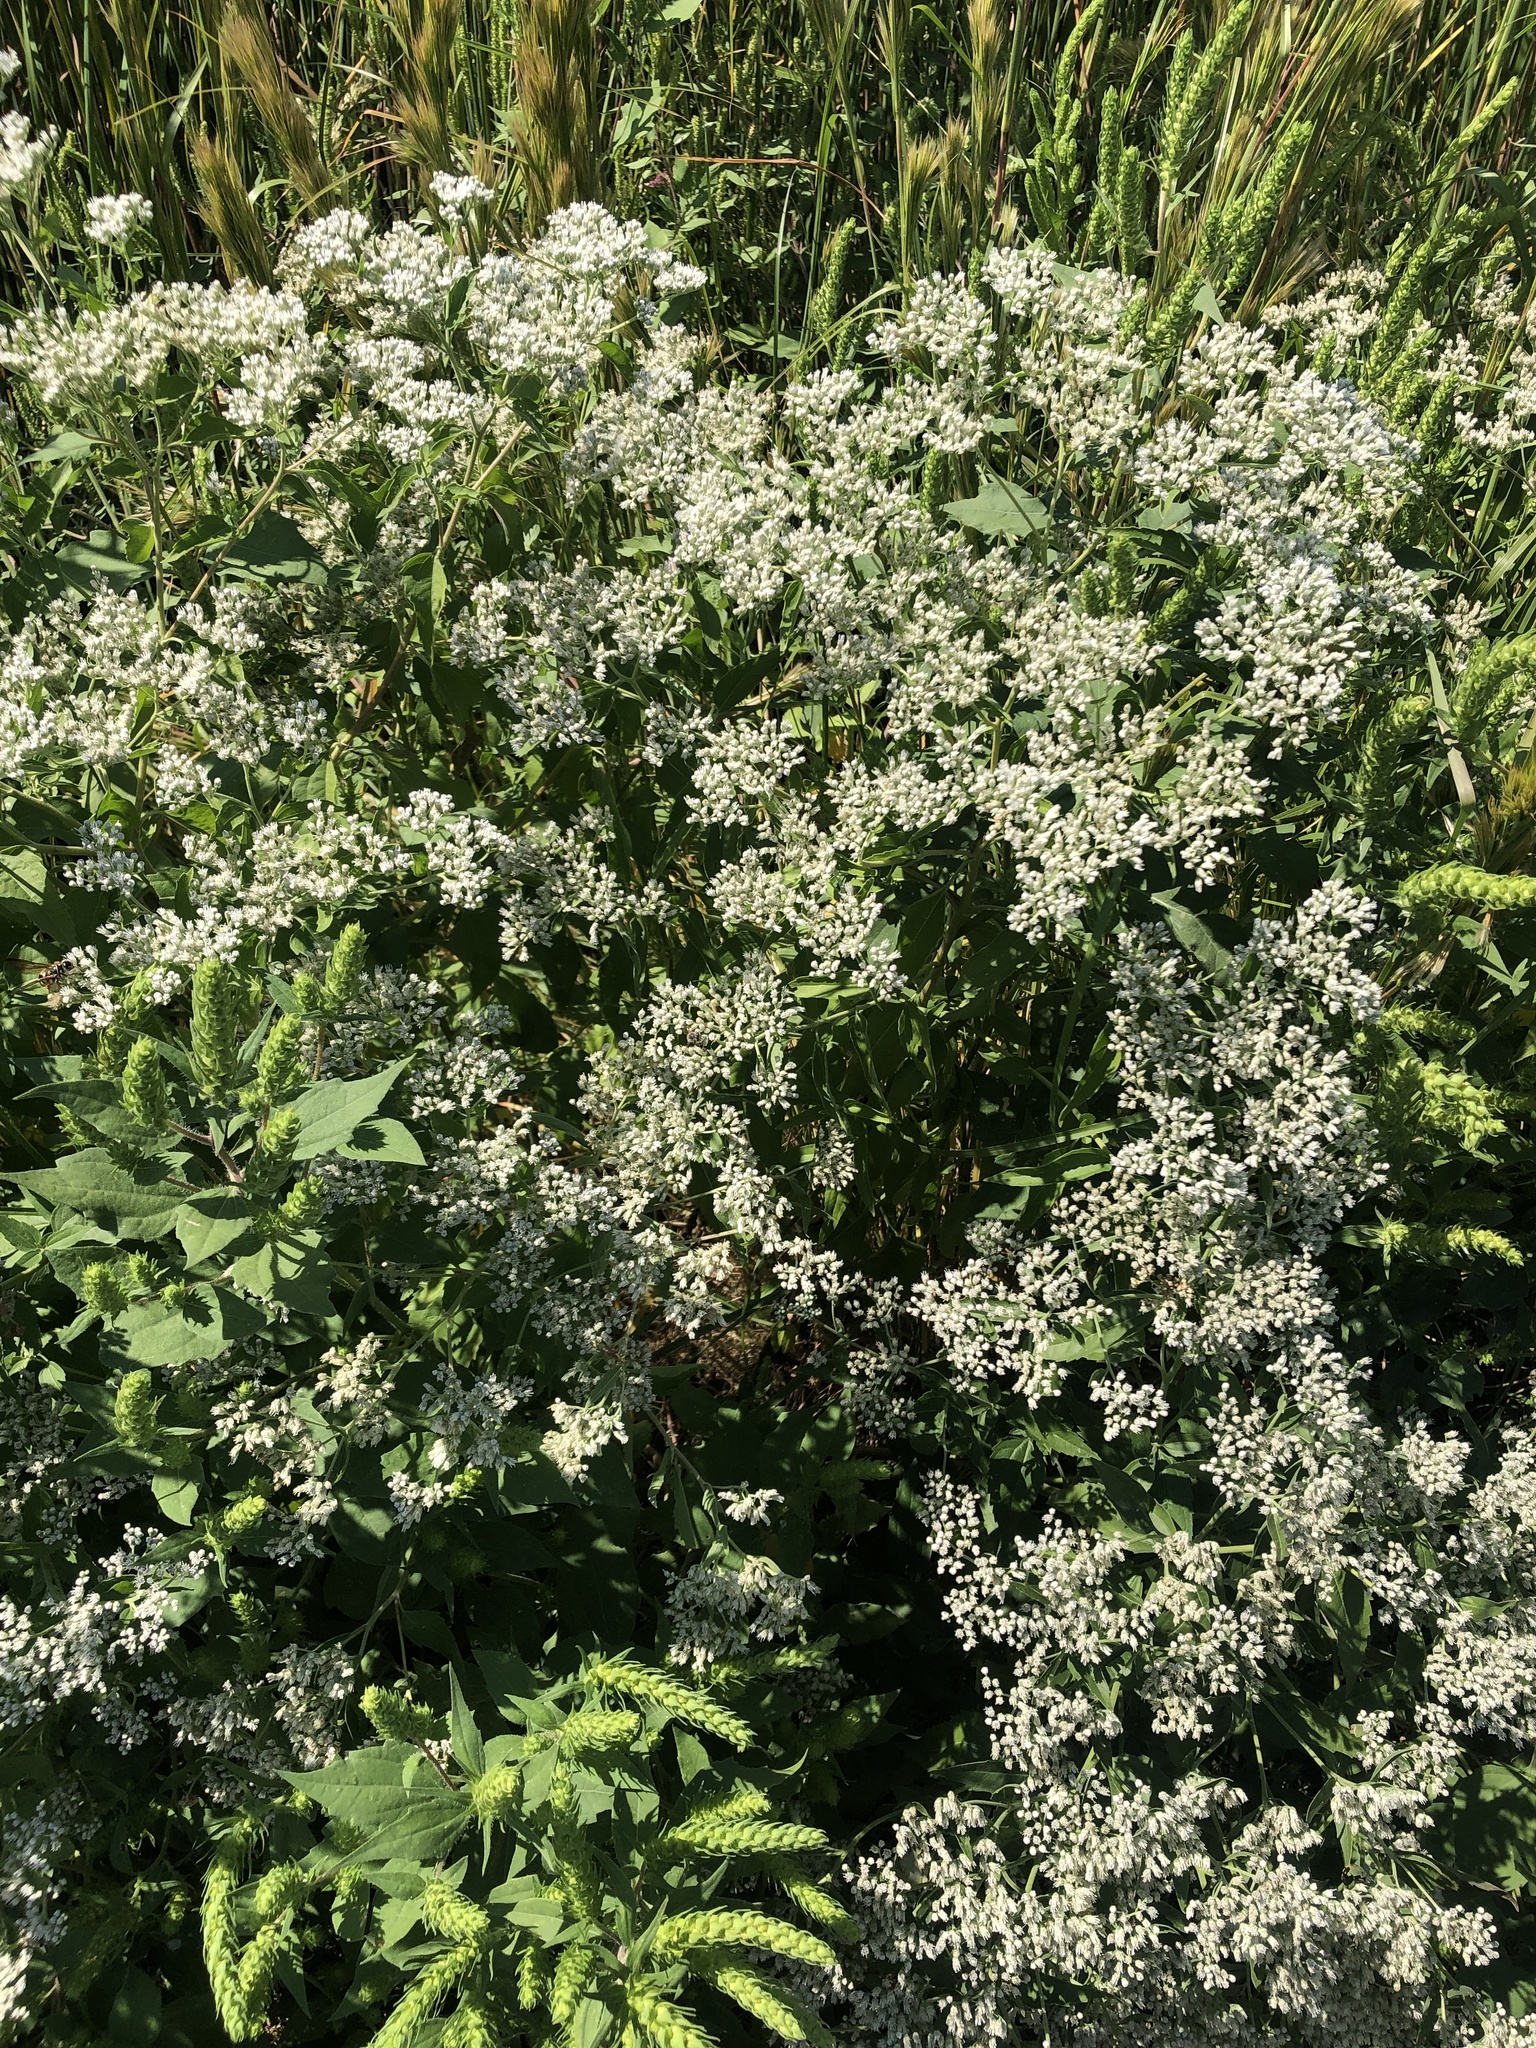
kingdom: Plantae
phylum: Tracheophyta
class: Magnoliopsida
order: Asterales
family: Asteraceae
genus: Eupatorium
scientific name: Eupatorium serotinum
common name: Late boneset
